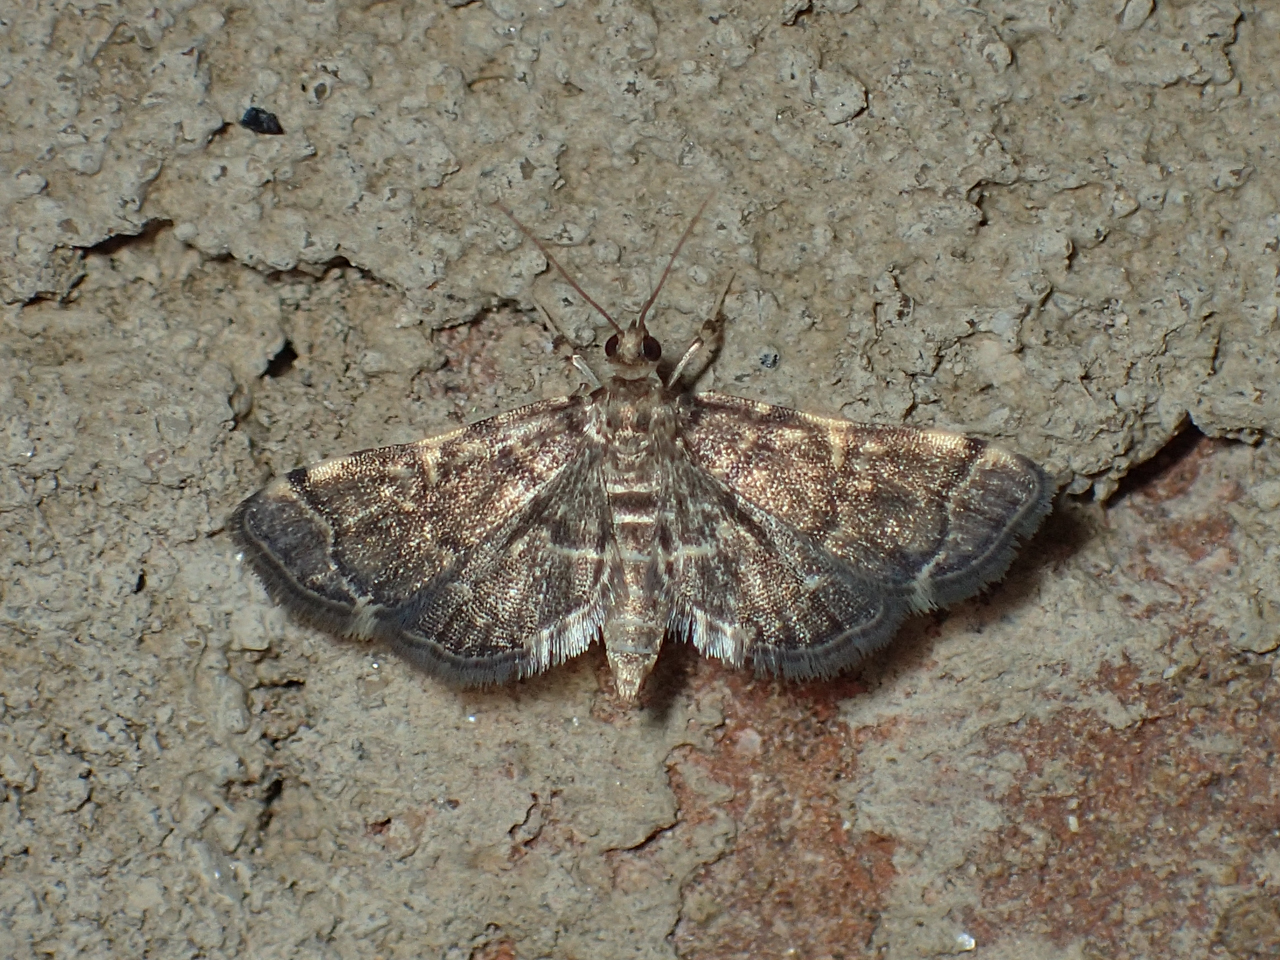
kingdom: Animalia
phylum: Arthropoda
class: Insecta
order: Lepidoptera
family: Crambidae
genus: Anageshna
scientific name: Anageshna primordialis
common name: Yellow-spotted webworm moth
